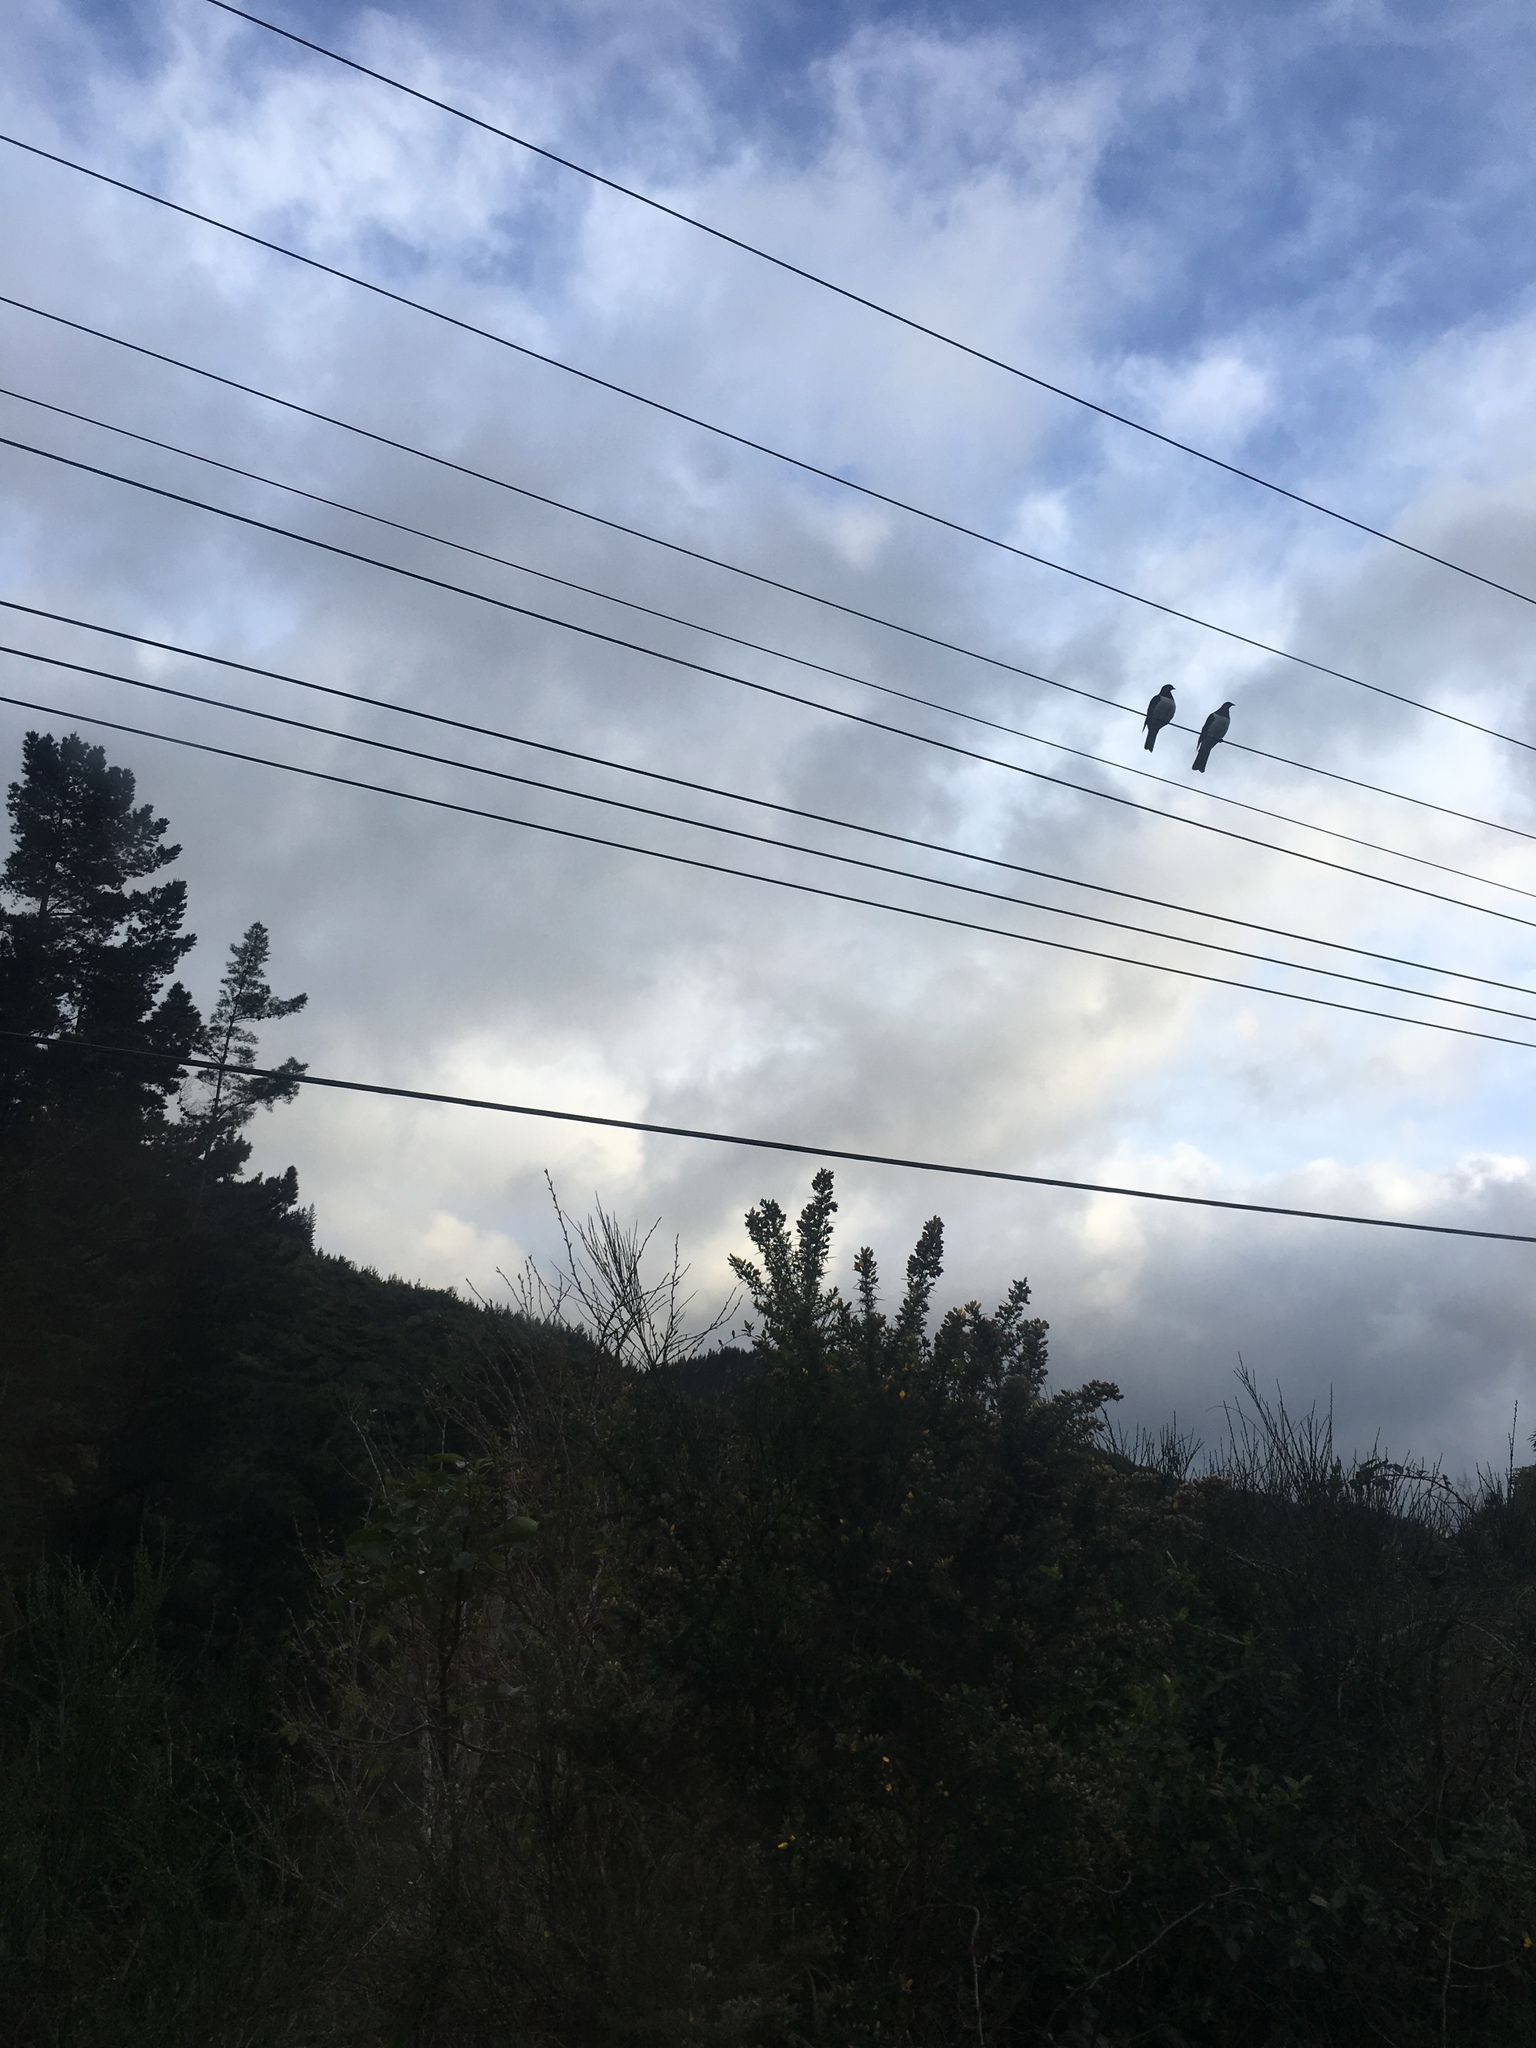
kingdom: Animalia
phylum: Chordata
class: Aves
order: Columbiformes
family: Columbidae
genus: Hemiphaga
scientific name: Hemiphaga novaeseelandiae
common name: New zealand pigeon
